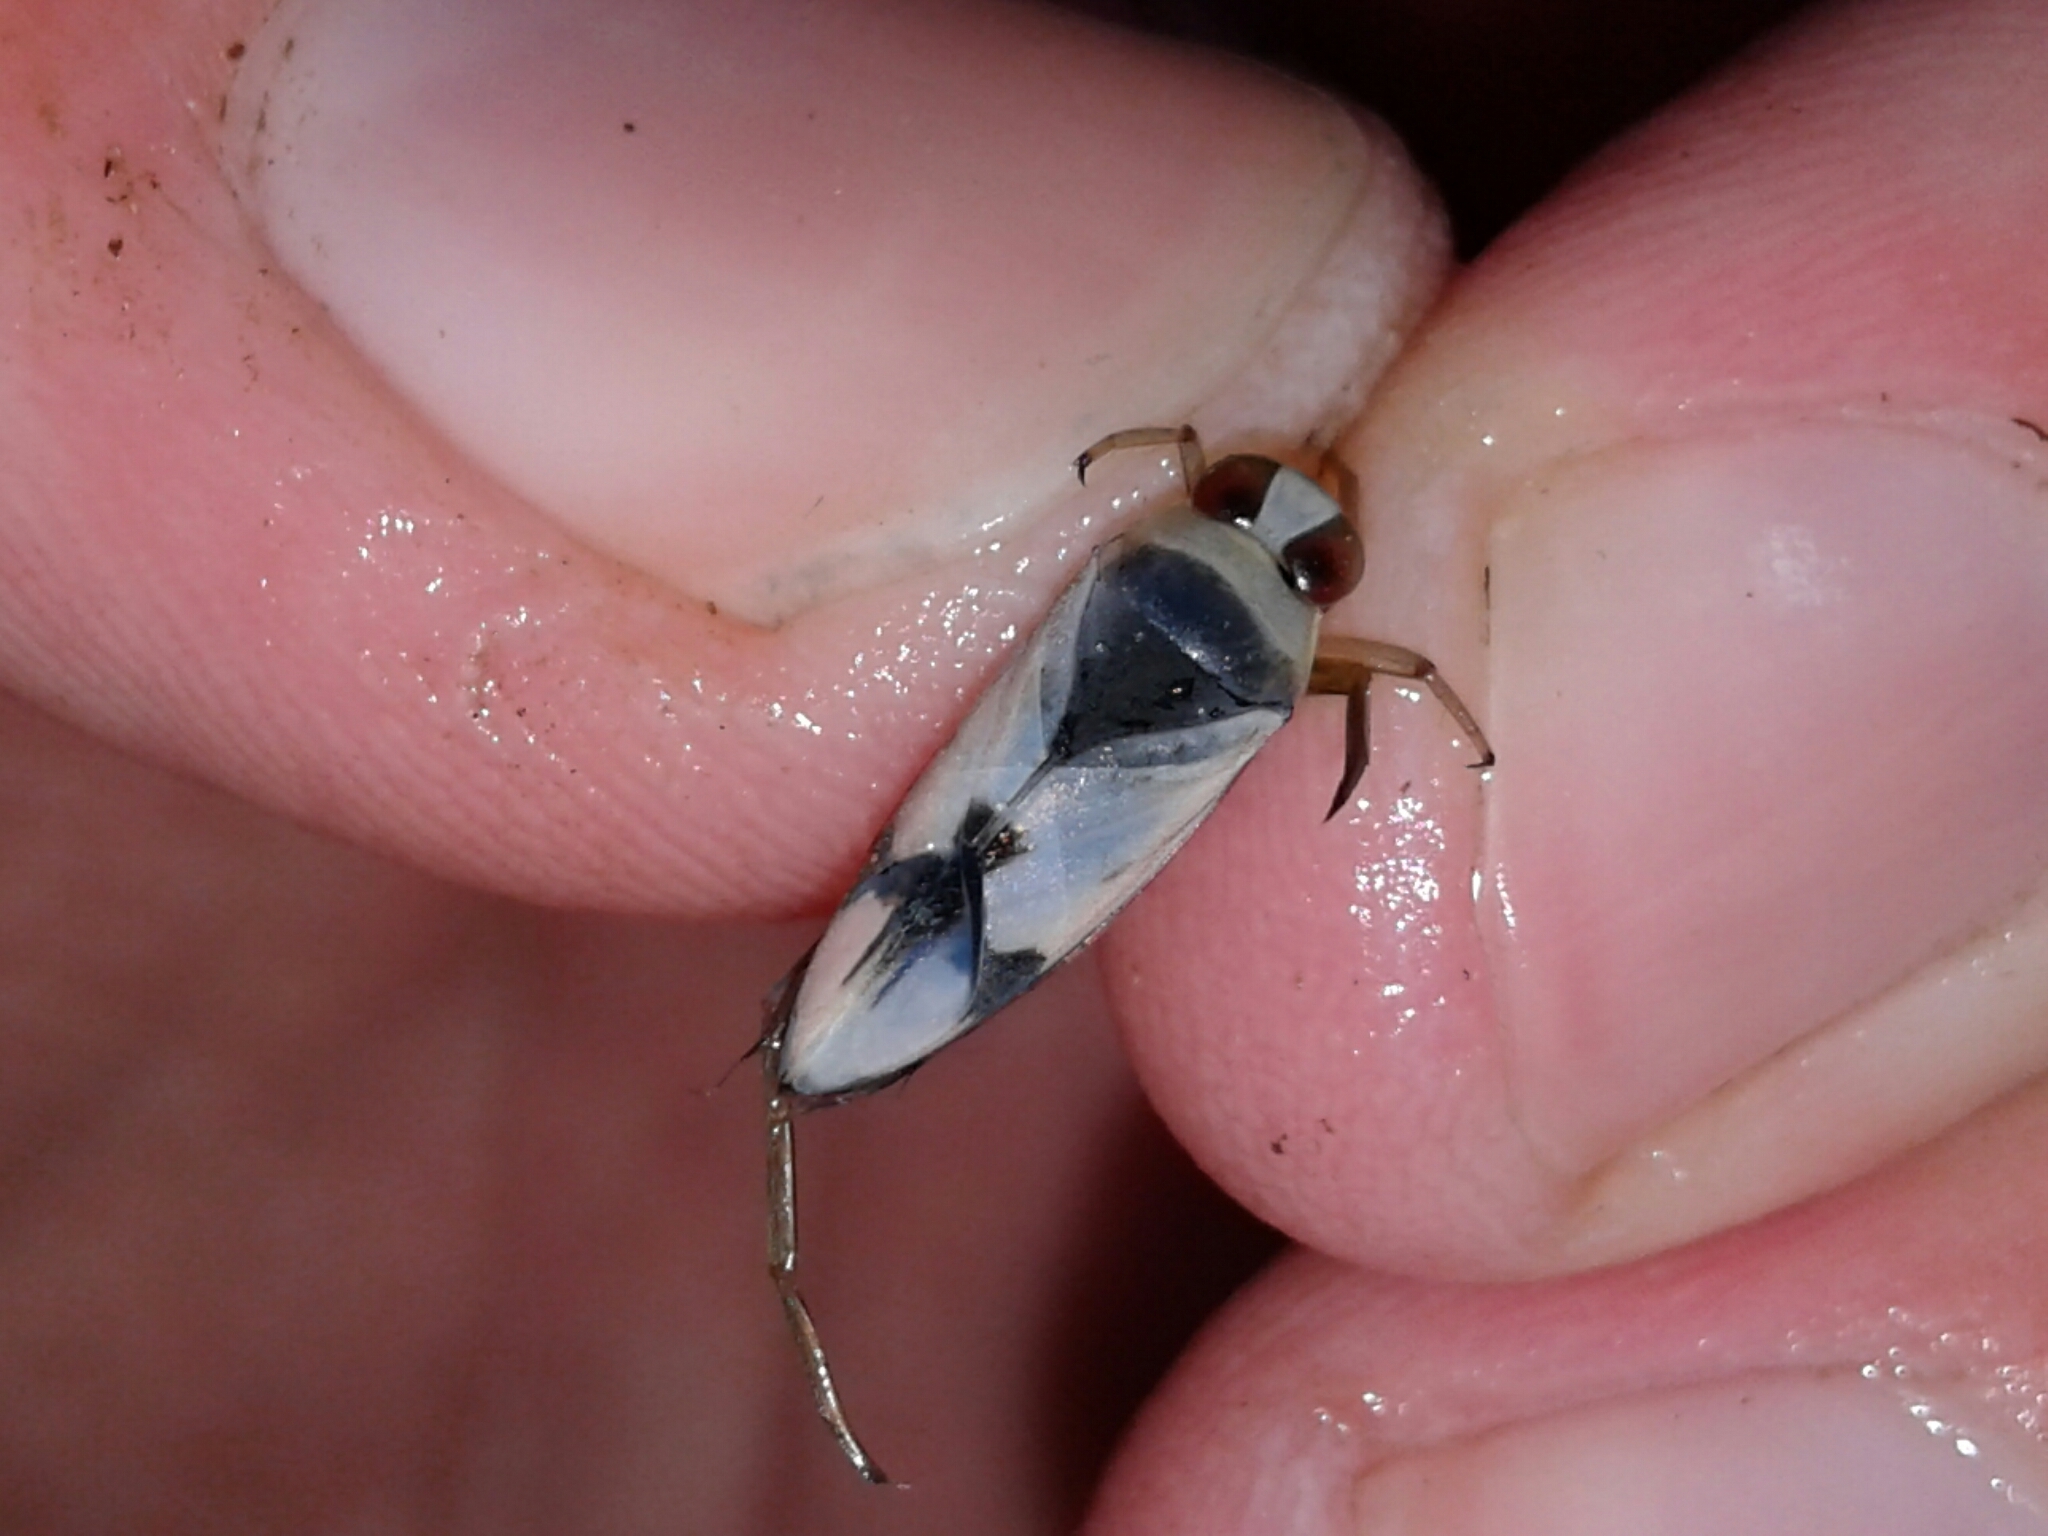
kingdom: Animalia
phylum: Arthropoda
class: Insecta
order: Hemiptera
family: Notonectidae
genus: Notonecta
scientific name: Notonecta undulata
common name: Grousewinged backswimmer
